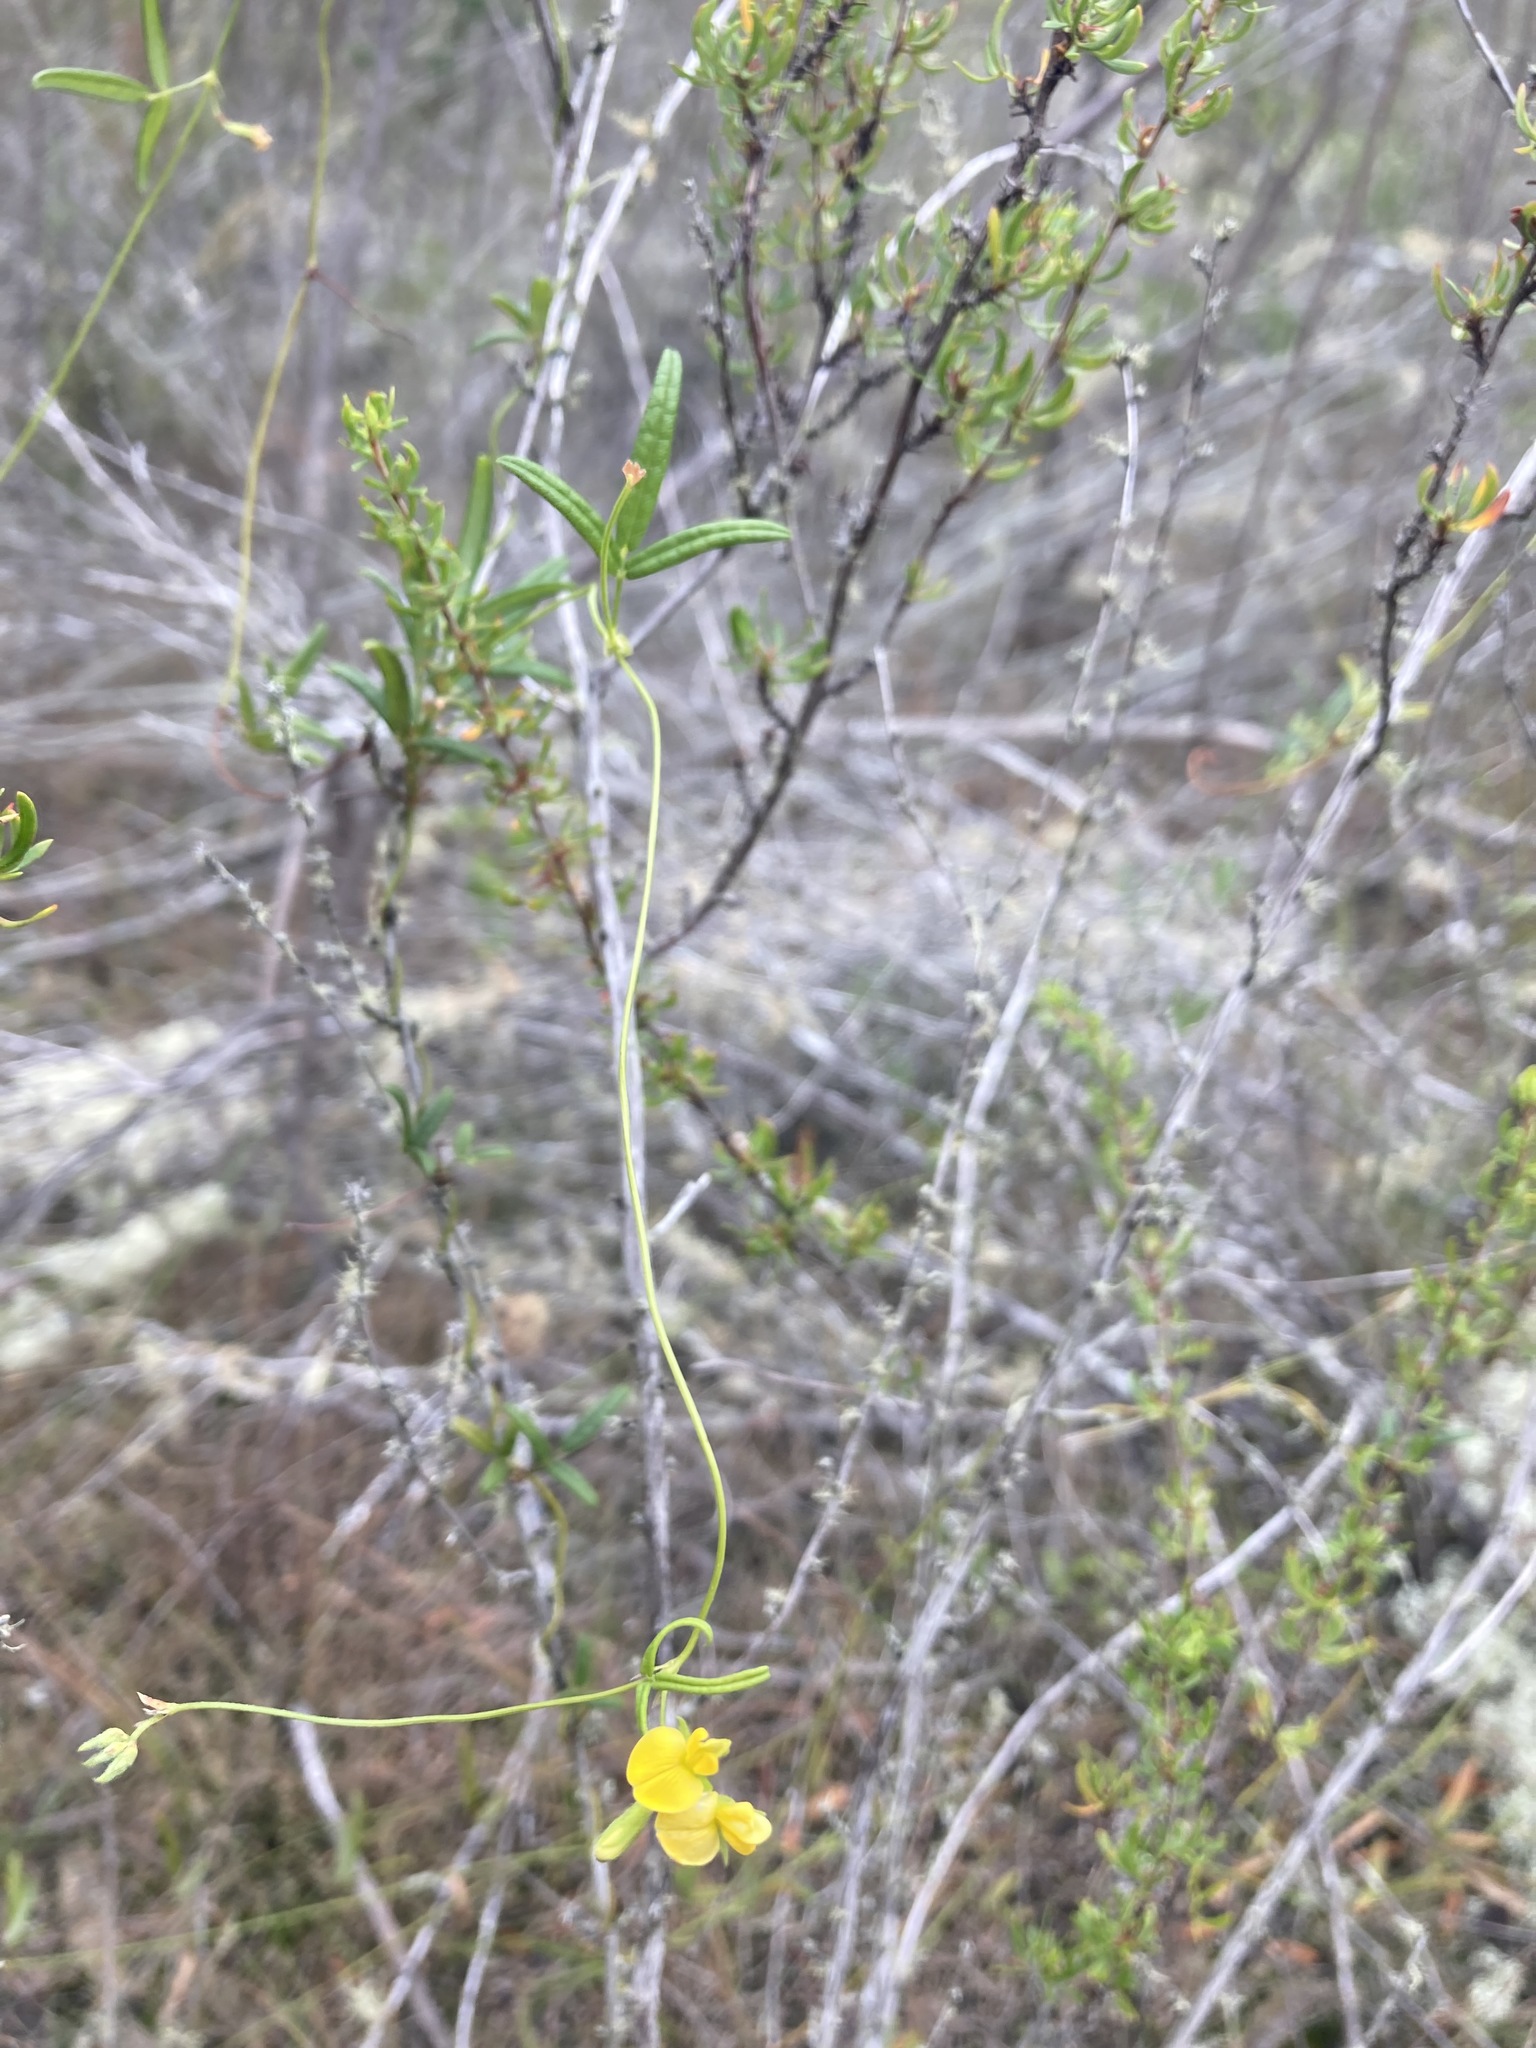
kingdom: Plantae
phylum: Tracheophyta
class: Magnoliopsida
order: Fabales
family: Fabaceae
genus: Rhynchosia
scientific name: Rhynchosia leucoscias
